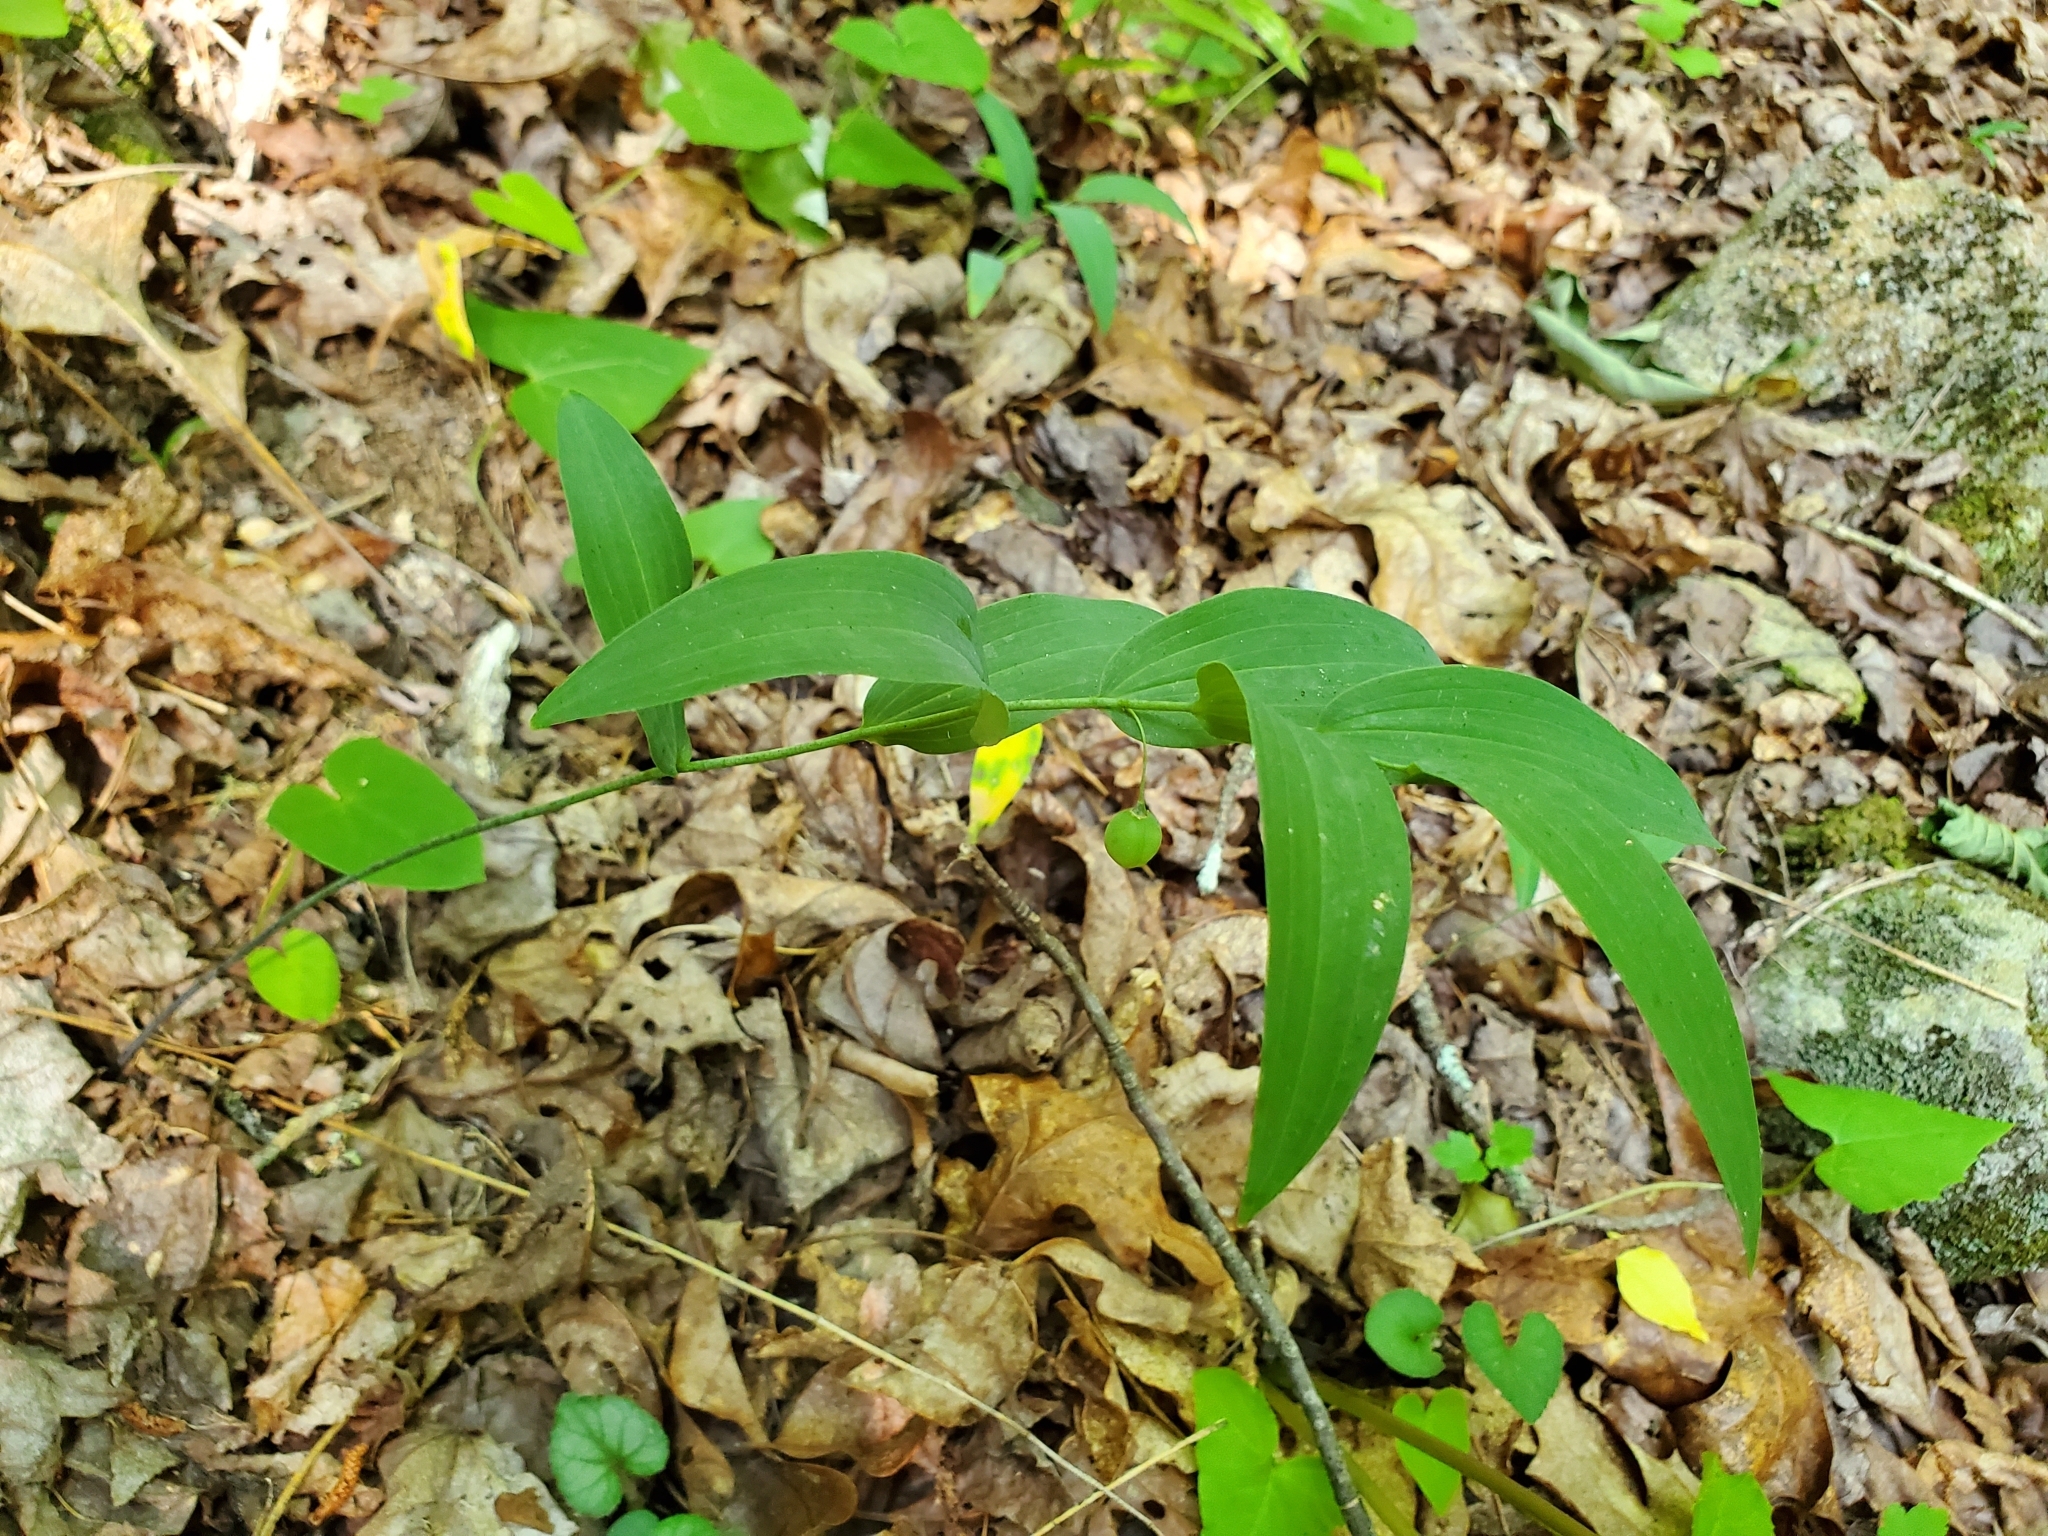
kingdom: Plantae
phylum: Tracheophyta
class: Liliopsida
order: Asparagales
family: Asparagaceae
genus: Polygonatum
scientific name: Polygonatum biflorum
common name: American solomon's-seal
